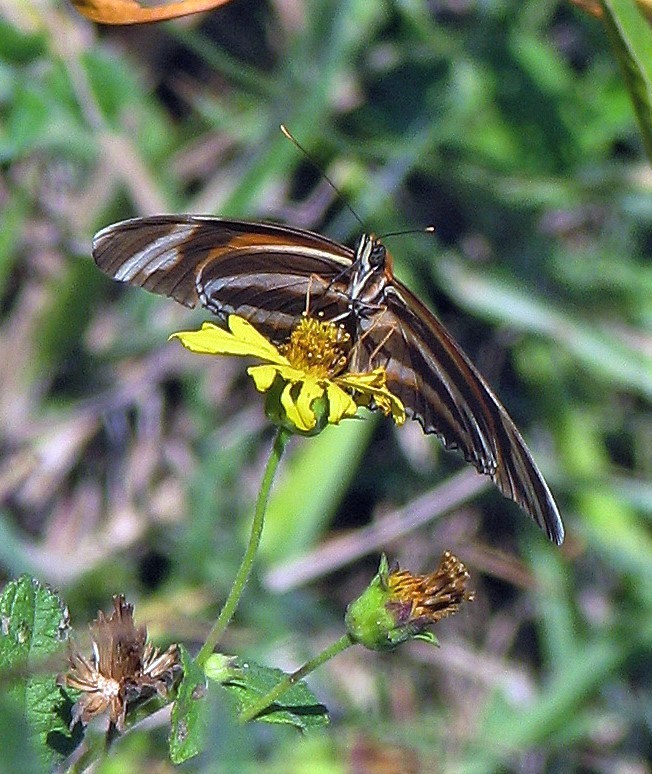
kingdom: Animalia
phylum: Arthropoda
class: Insecta
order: Lepidoptera
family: Nymphalidae
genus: Dryadula
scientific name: Dryadula phaetusa
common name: Banded orange heliconian
